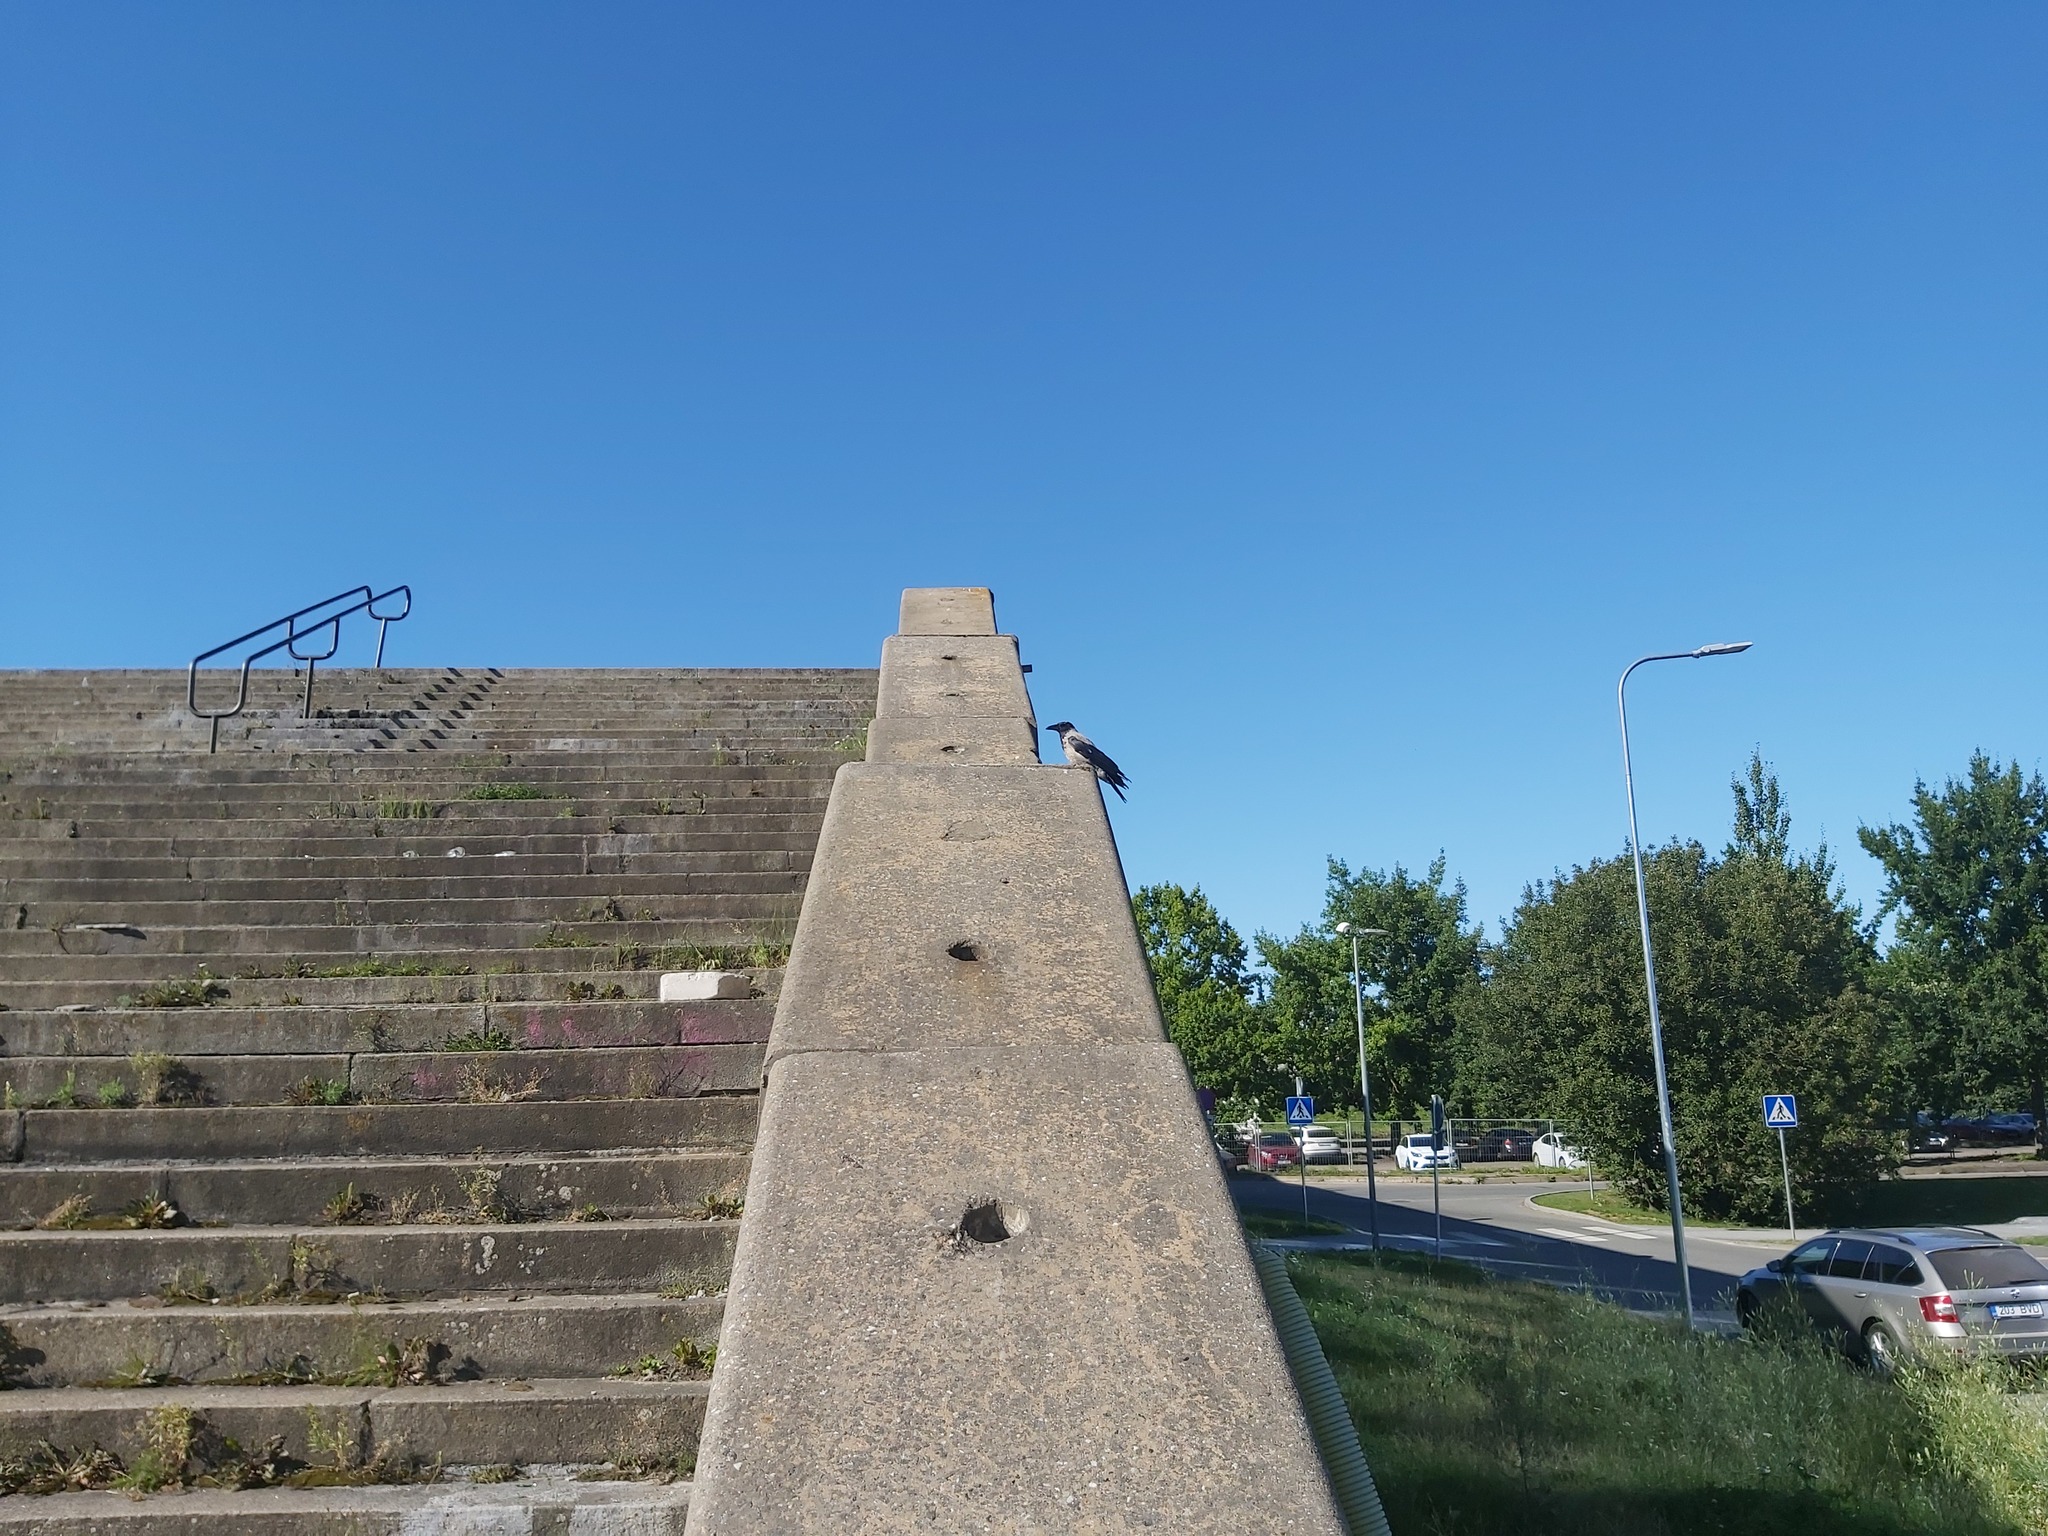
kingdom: Animalia
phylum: Chordata
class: Aves
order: Passeriformes
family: Corvidae
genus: Corvus
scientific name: Corvus cornix
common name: Hooded crow
